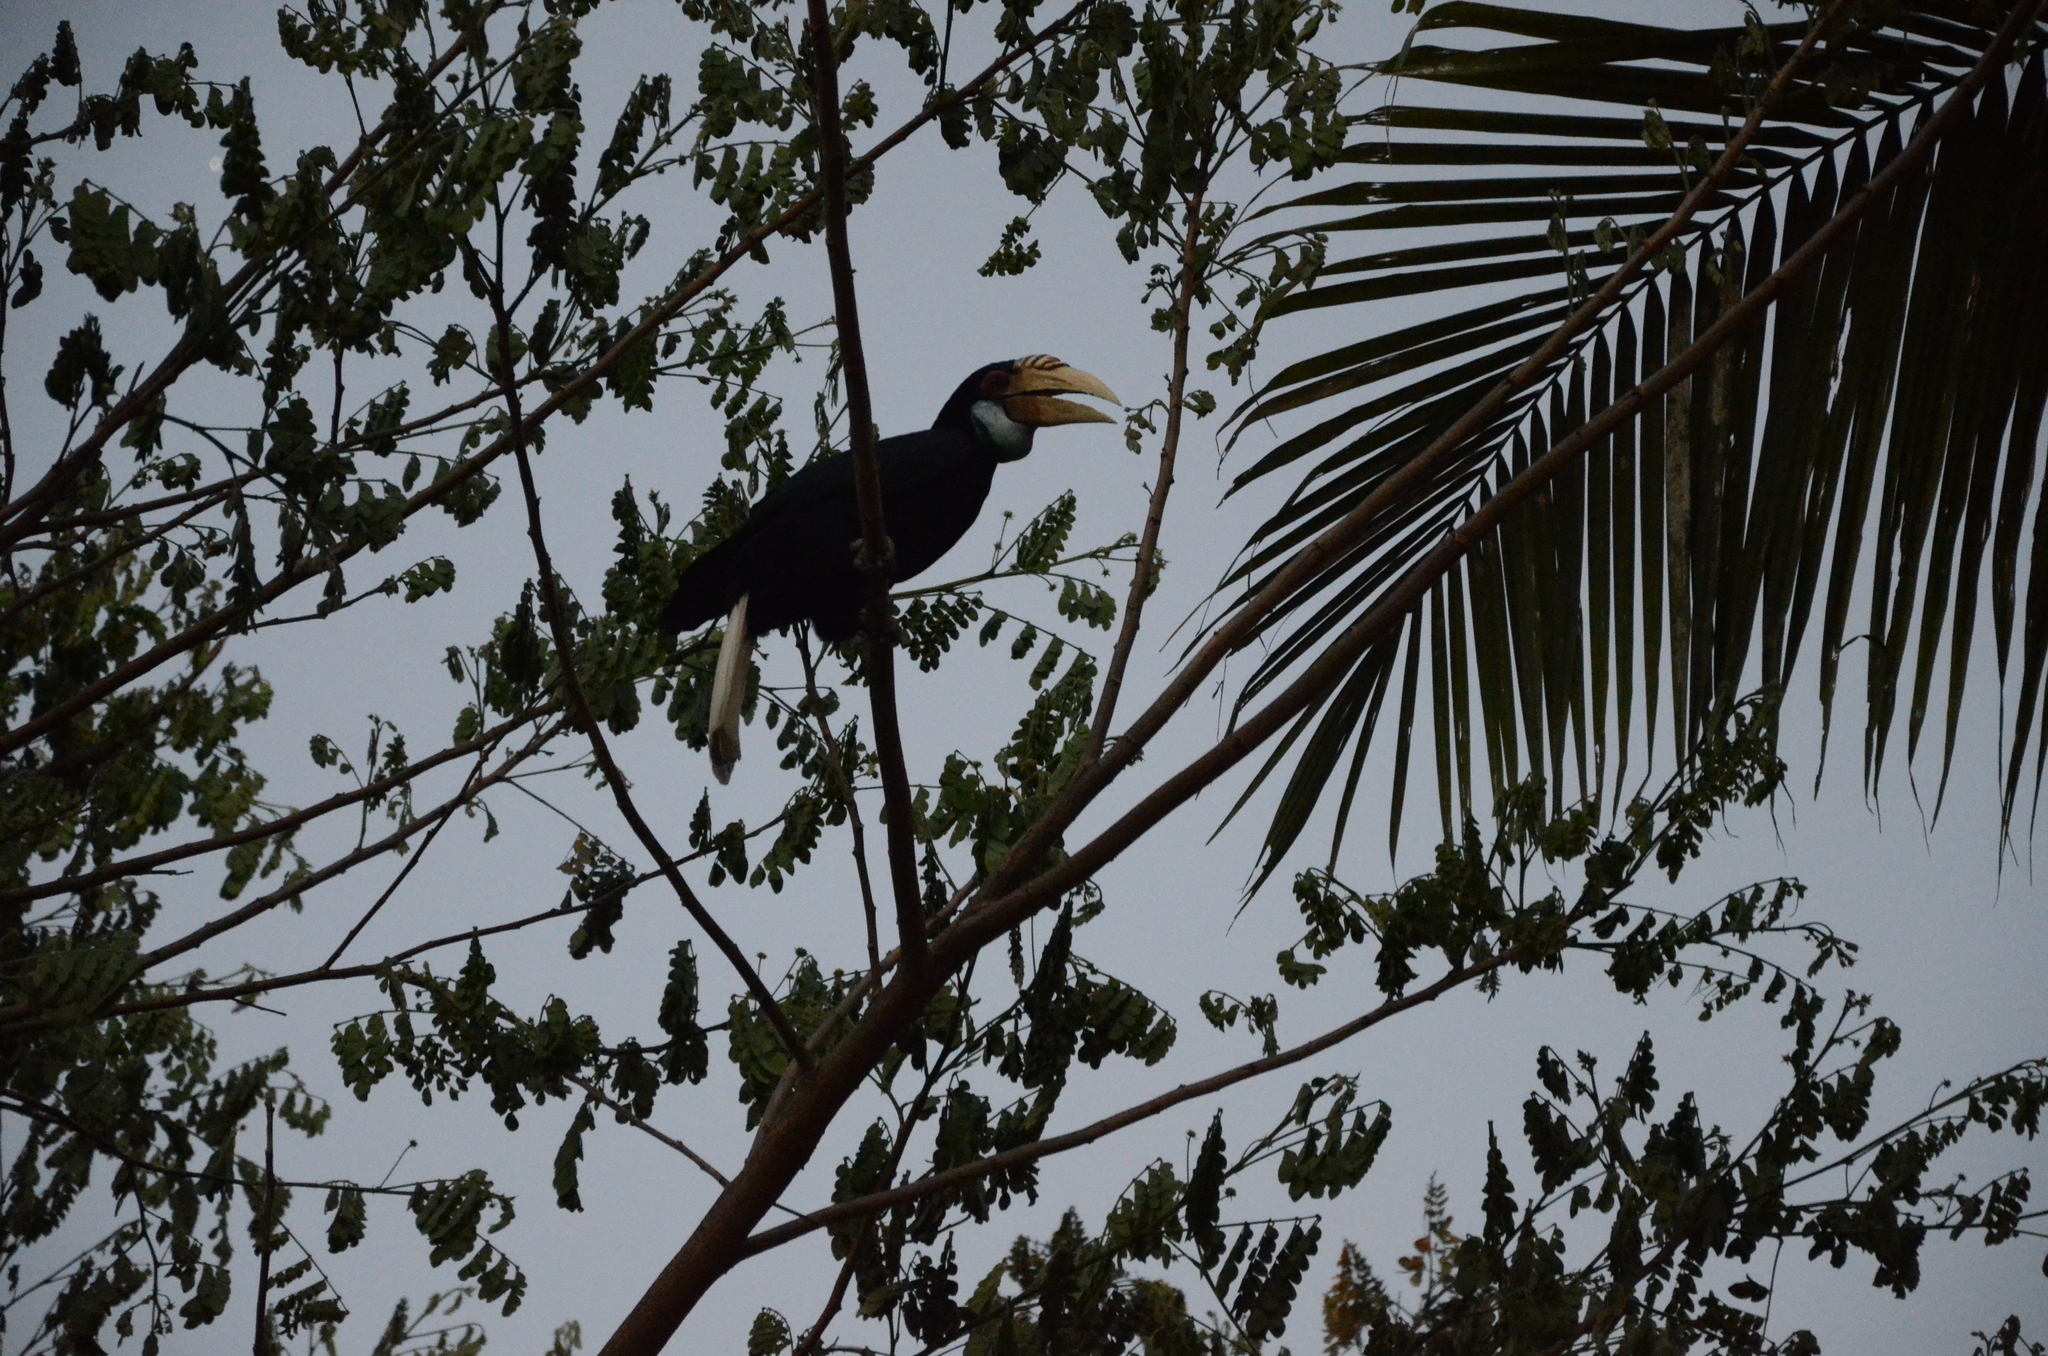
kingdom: Animalia
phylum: Chordata
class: Aves
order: Bucerotiformes
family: Bucerotidae
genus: Rhyticeros
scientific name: Rhyticeros undulatus
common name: Wreathed hornbill
